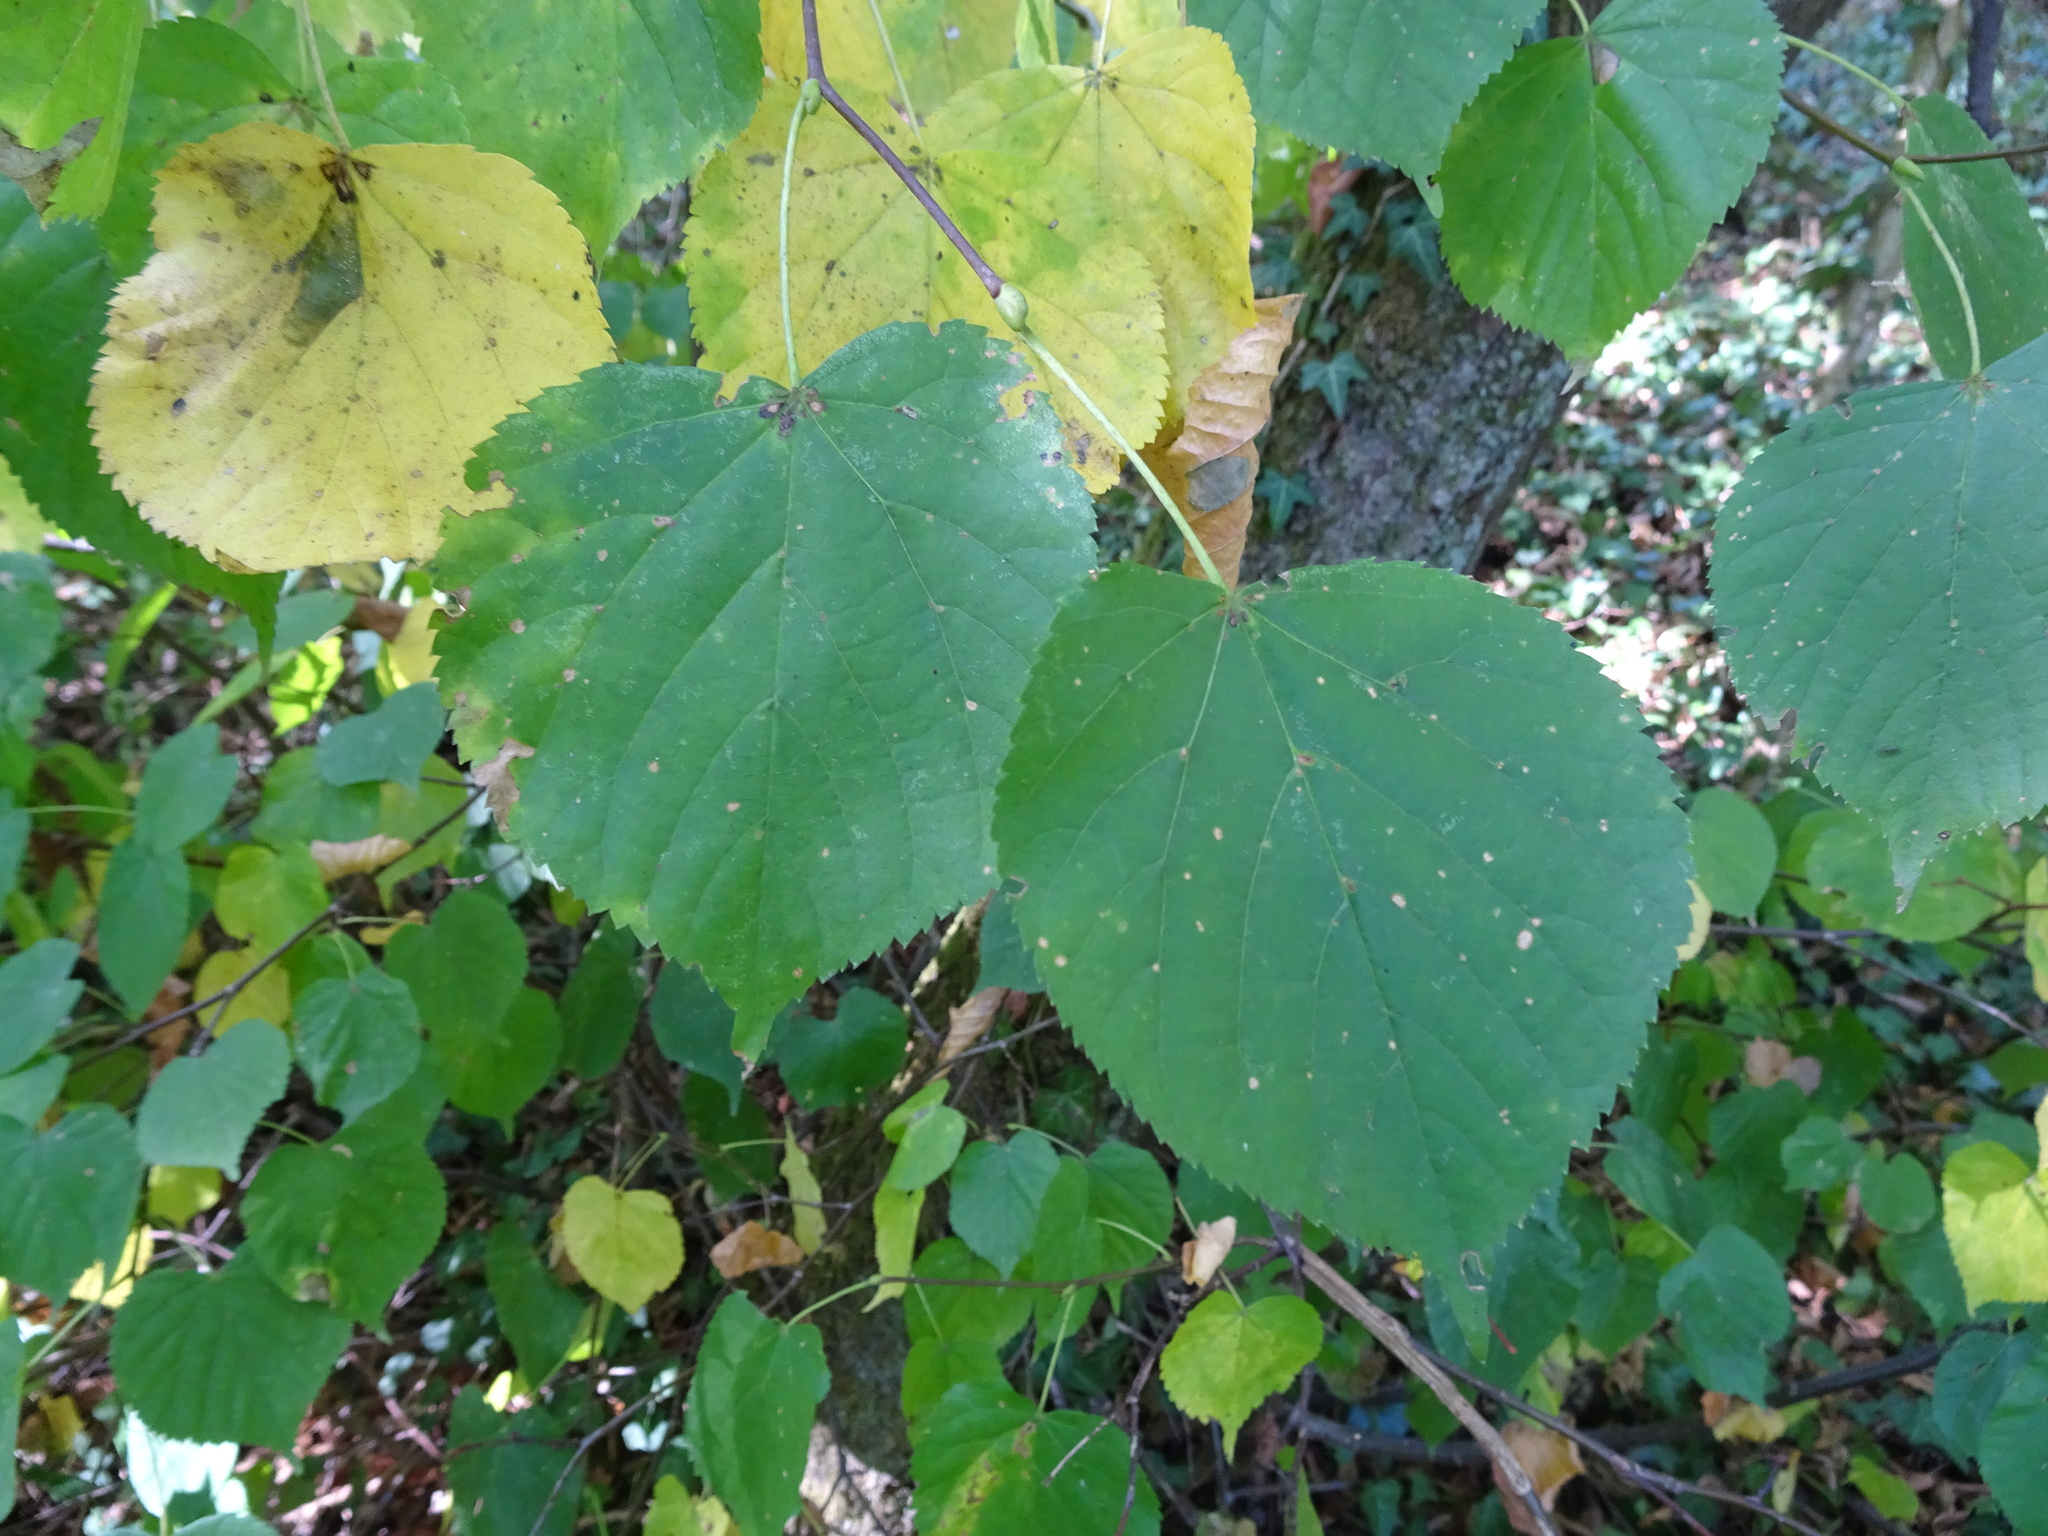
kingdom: Plantae
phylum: Tracheophyta
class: Magnoliopsida
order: Malvales
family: Malvaceae
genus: Tilia
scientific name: Tilia cordata
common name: Small-leaved lime
